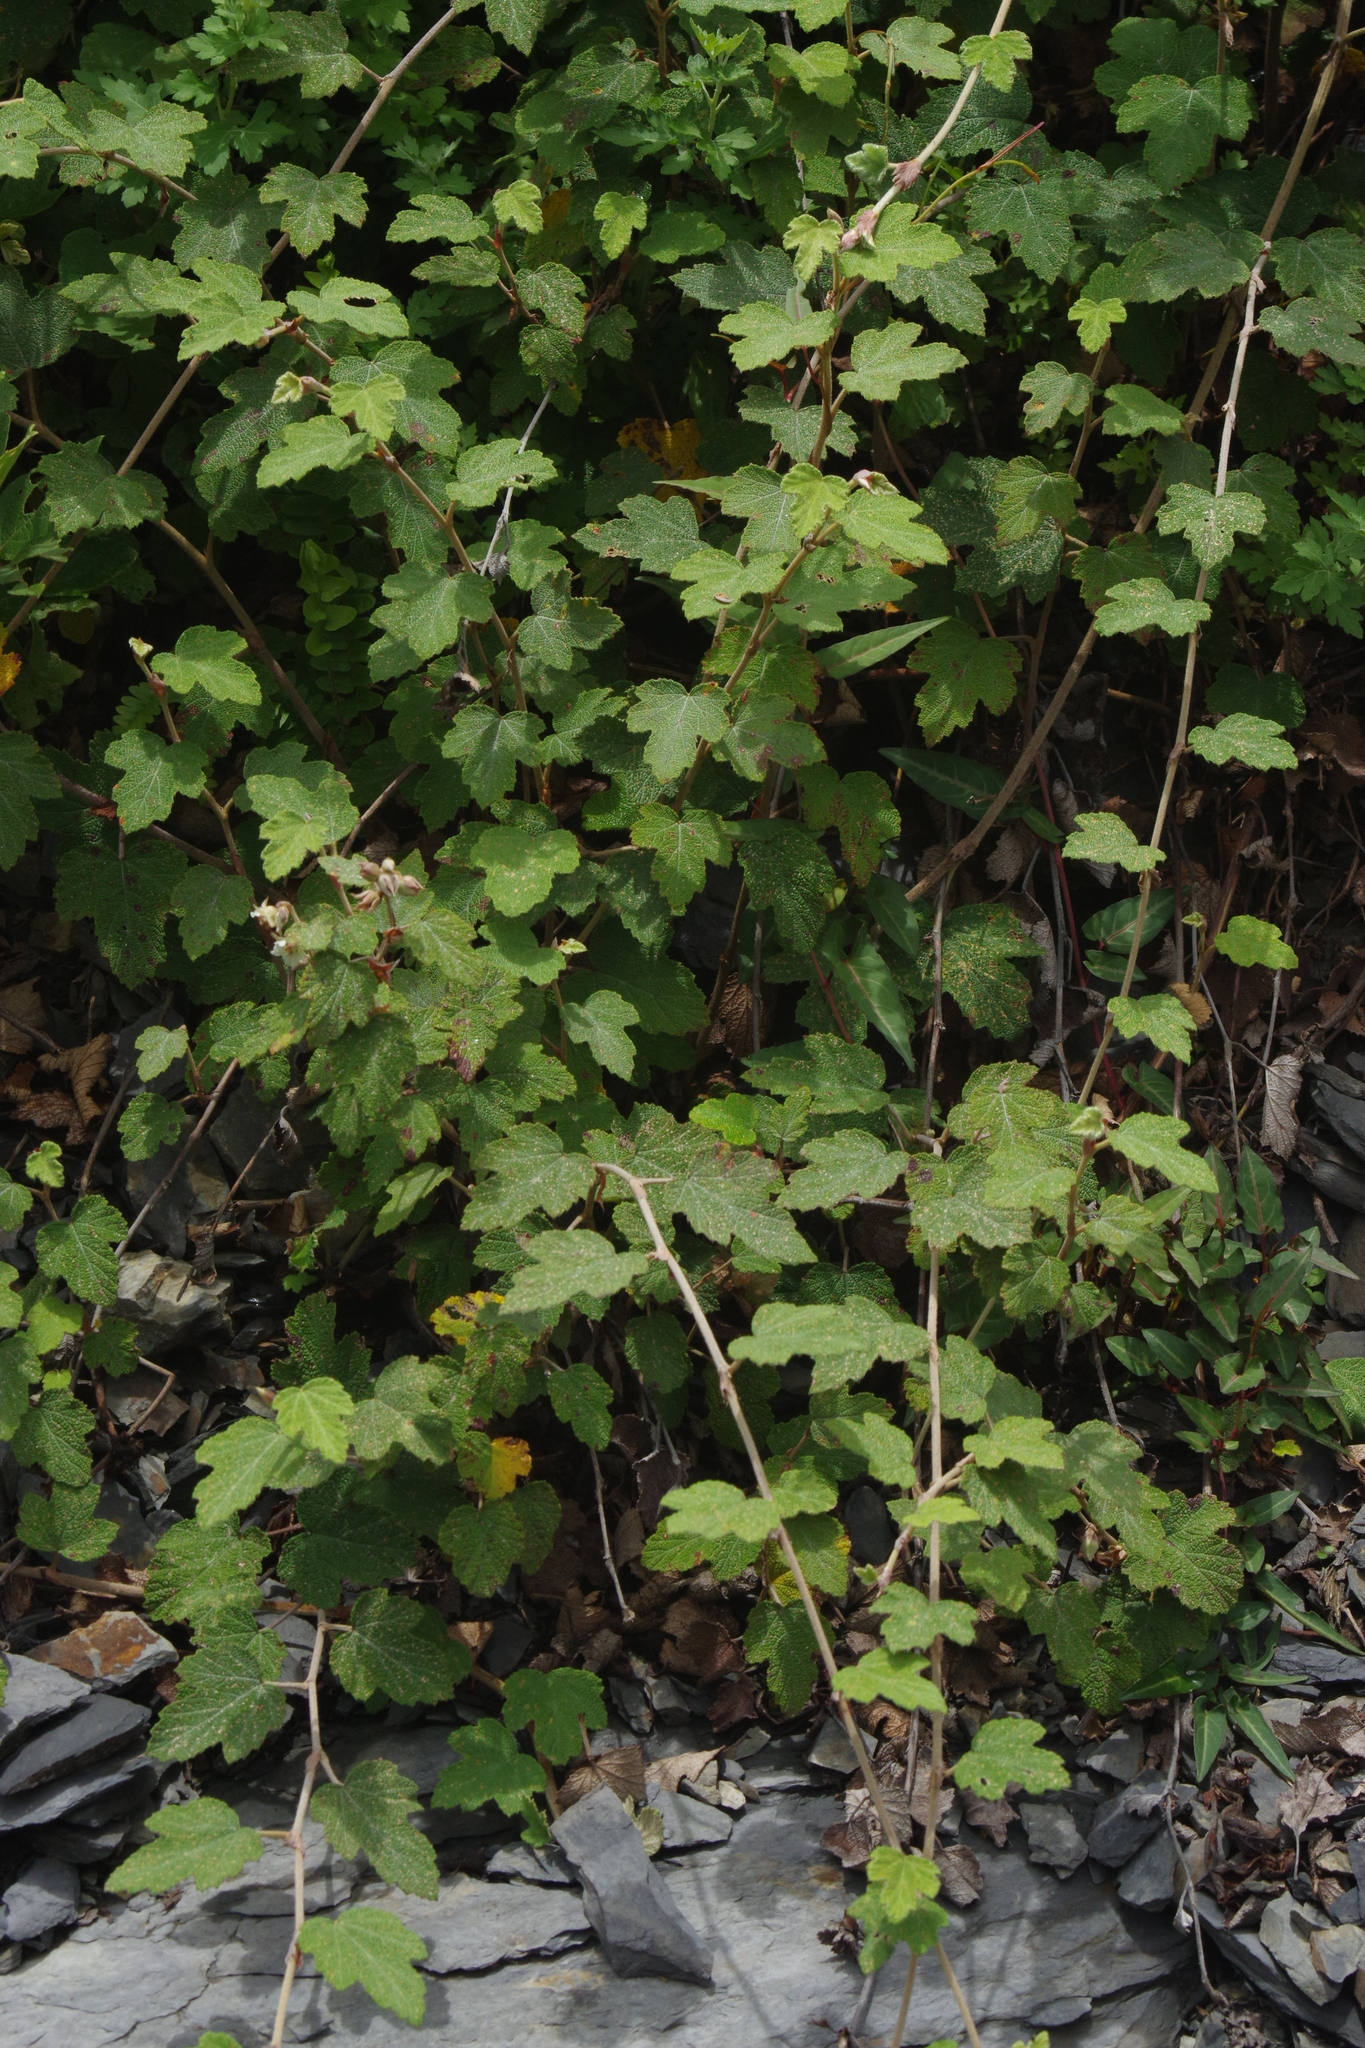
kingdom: Plantae
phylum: Tracheophyta
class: Magnoliopsida
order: Rosales
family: Rosaceae
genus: Rubus
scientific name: Rubus formosensis
